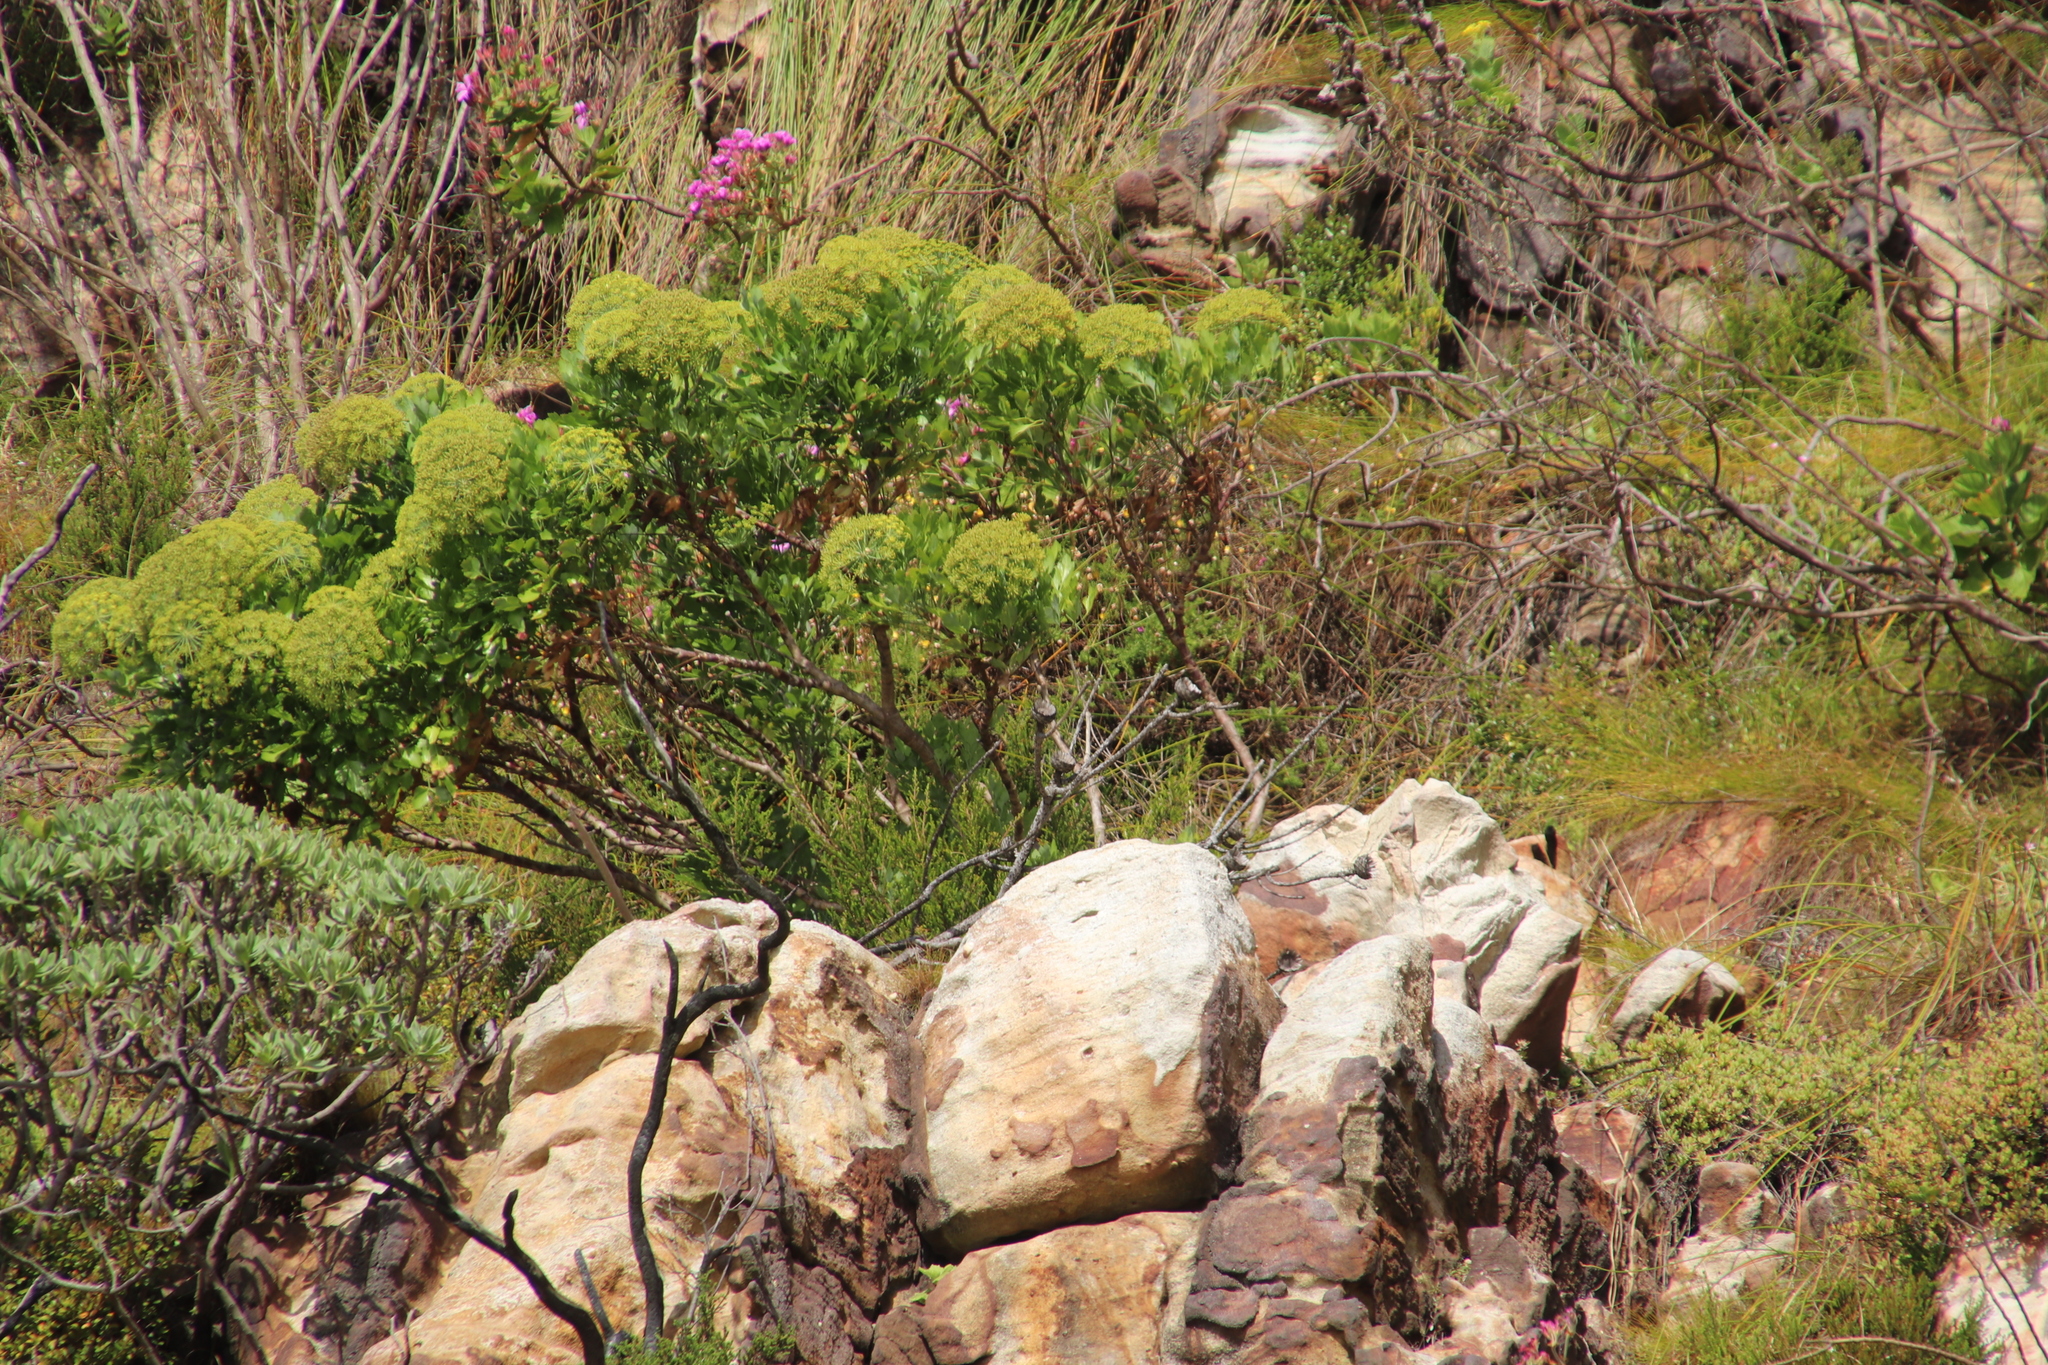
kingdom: Plantae
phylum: Tracheophyta
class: Magnoliopsida
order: Apiales
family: Apiaceae
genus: Notobubon
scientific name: Notobubon galbanum
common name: Blisterbush
